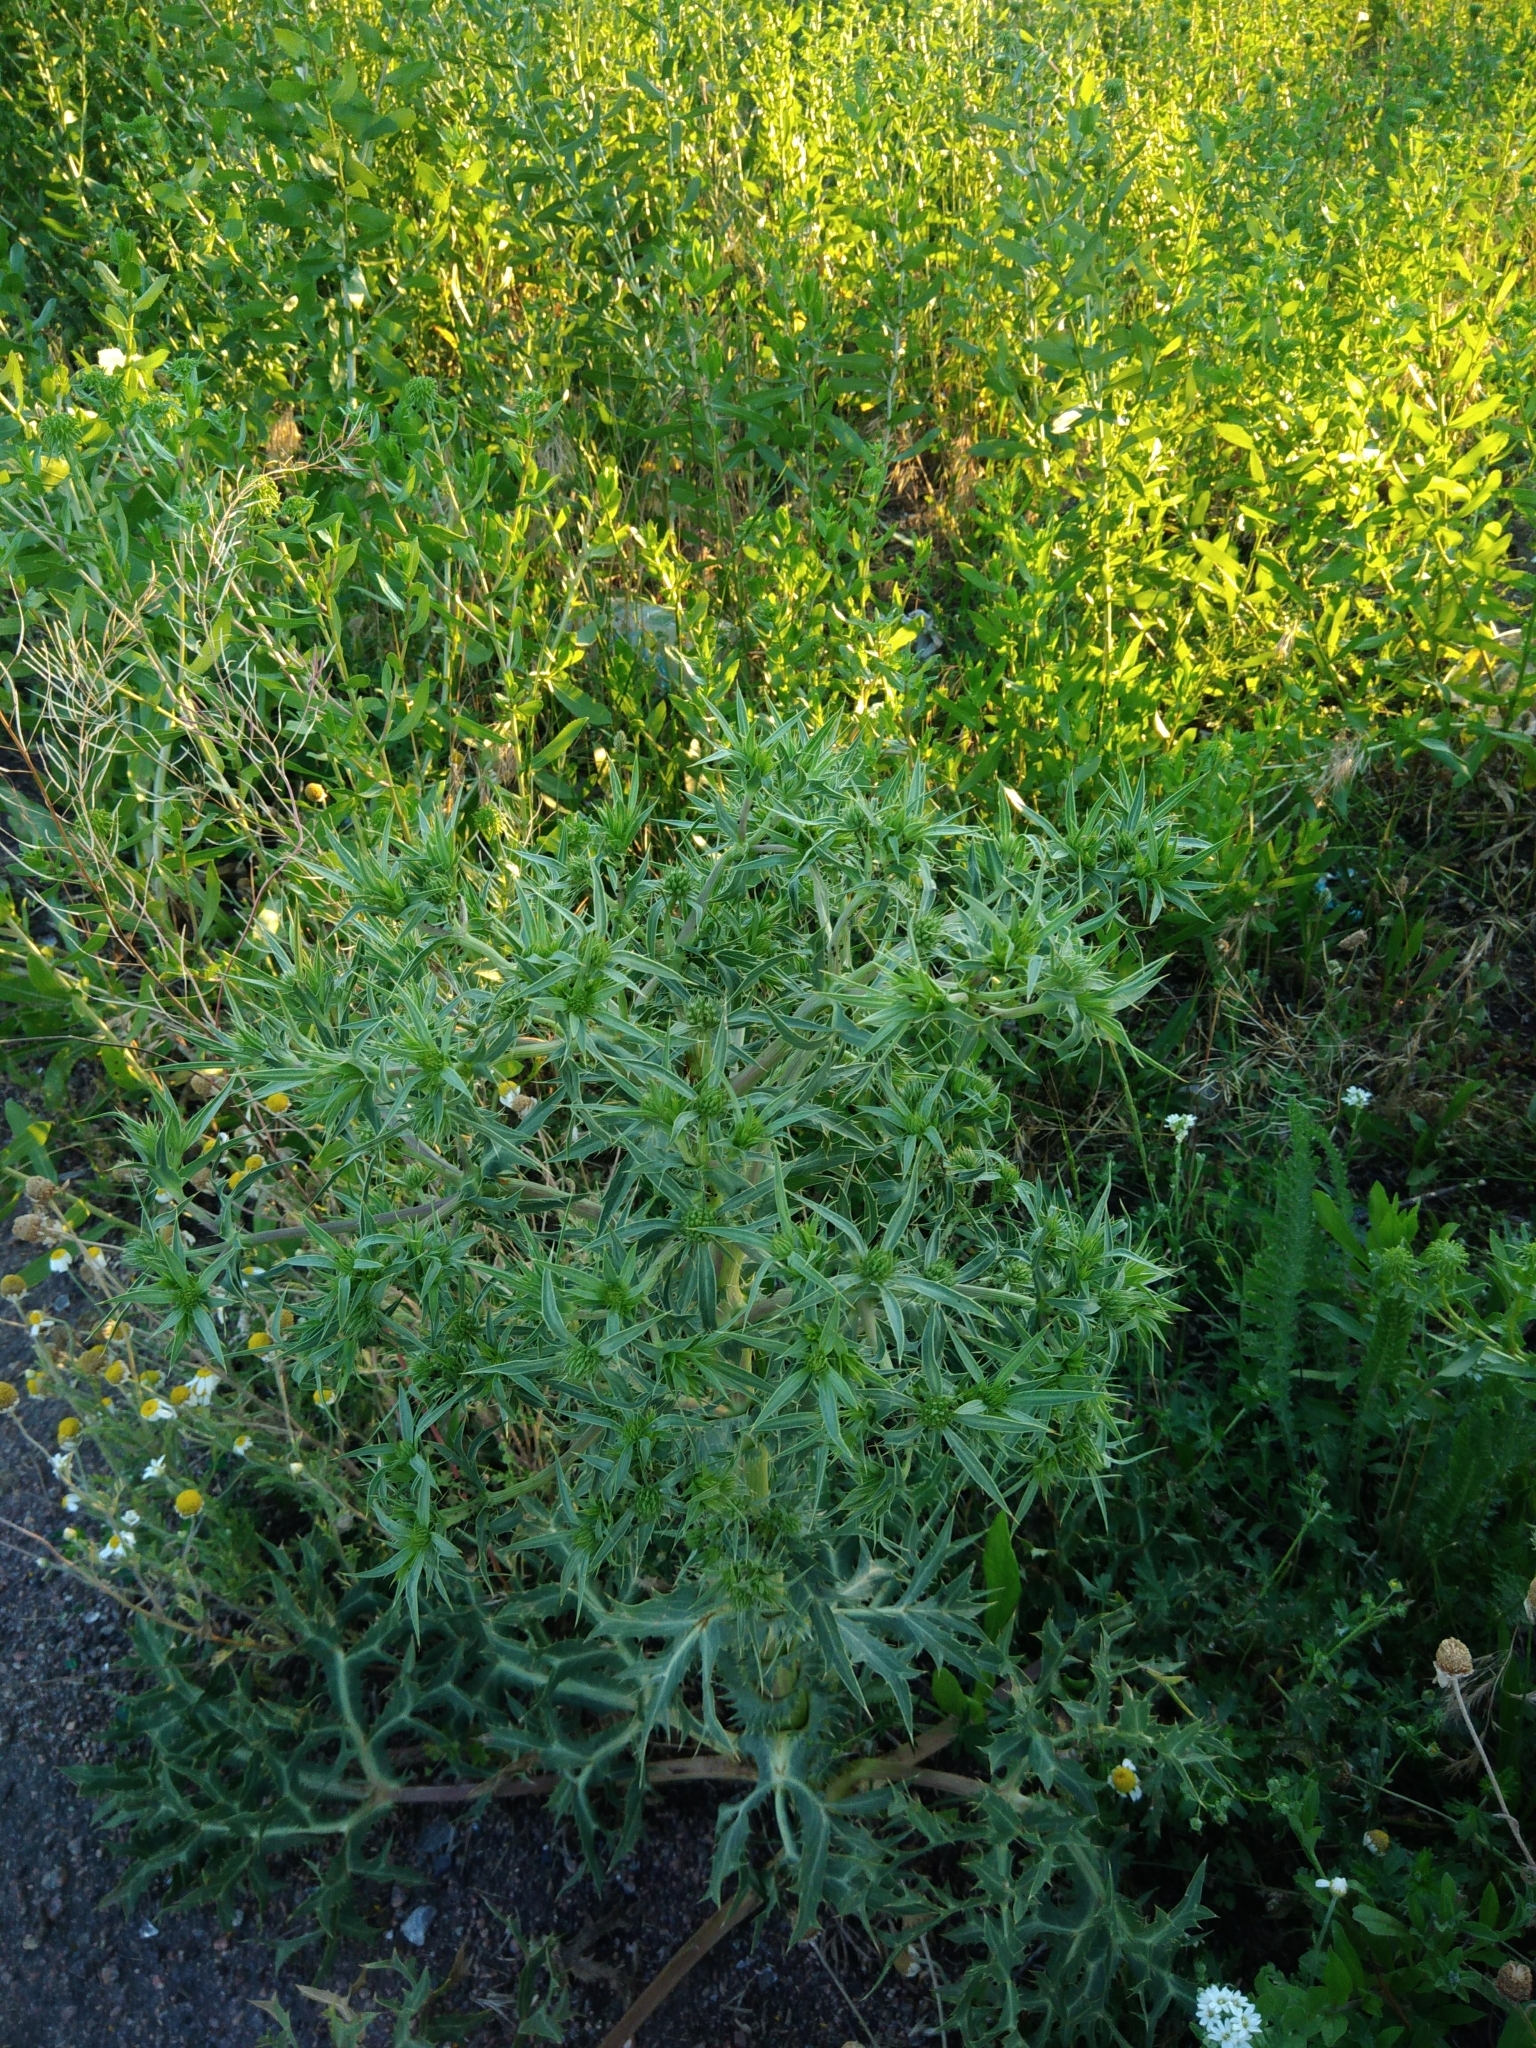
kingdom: Plantae
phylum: Tracheophyta
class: Magnoliopsida
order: Apiales
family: Apiaceae
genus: Eryngium
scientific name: Eryngium campestre
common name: Field eryngo
